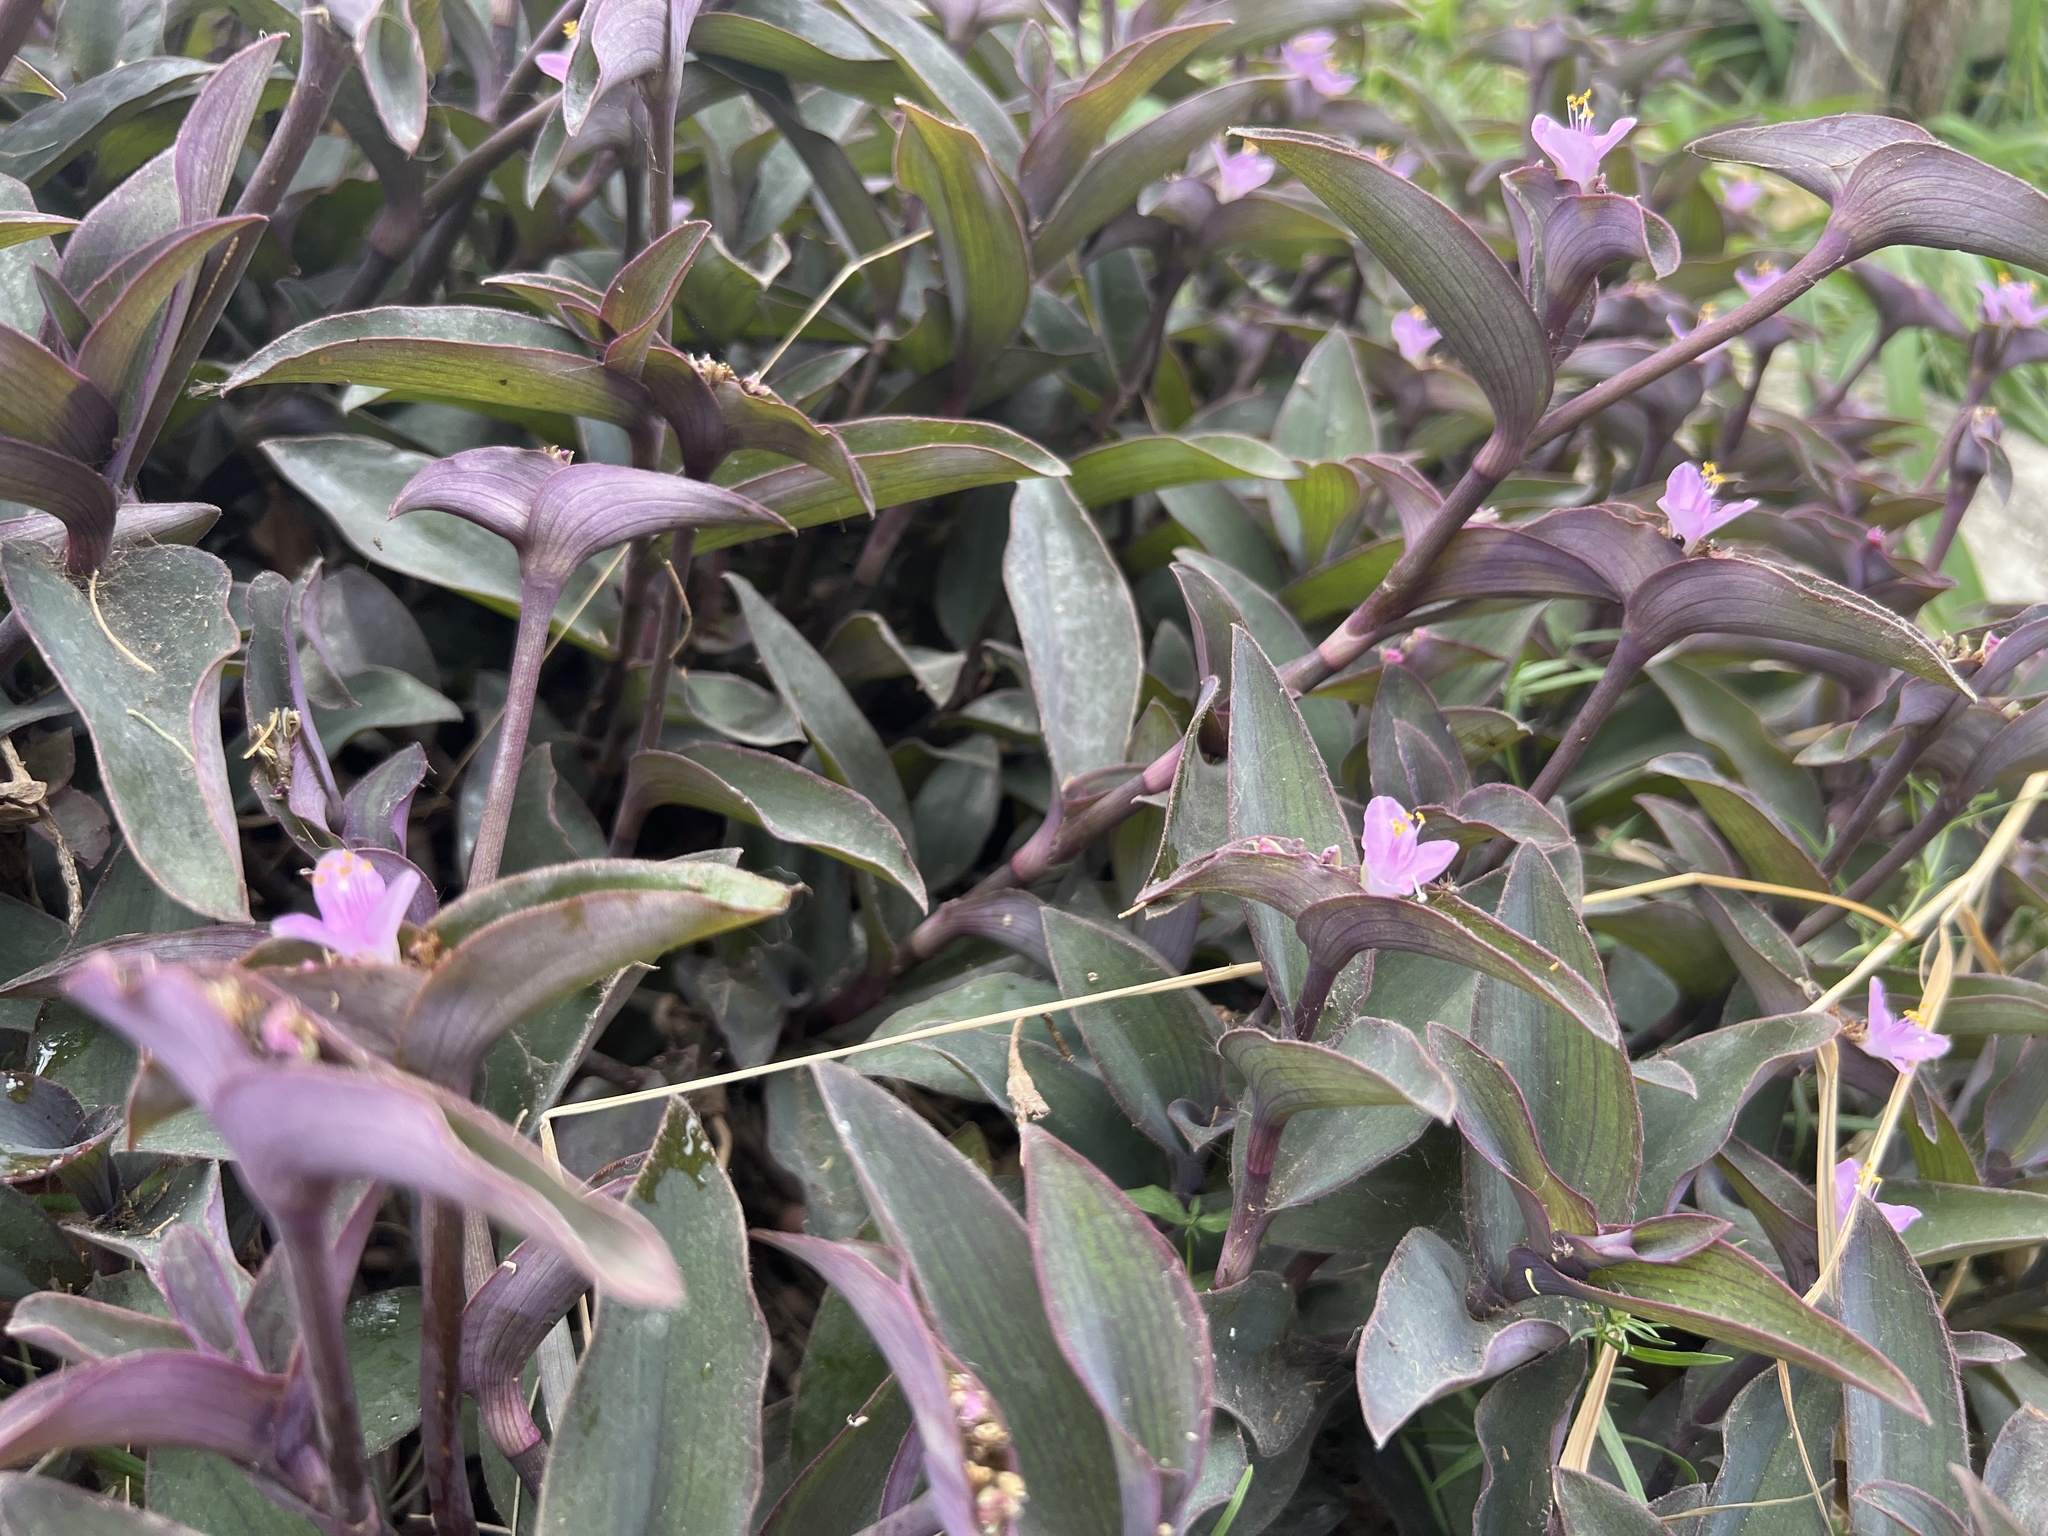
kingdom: Plantae
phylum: Tracheophyta
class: Liliopsida
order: Commelinales
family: Commelinaceae
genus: Tradescantia
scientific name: Tradescantia pallida
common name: Purpleheart
